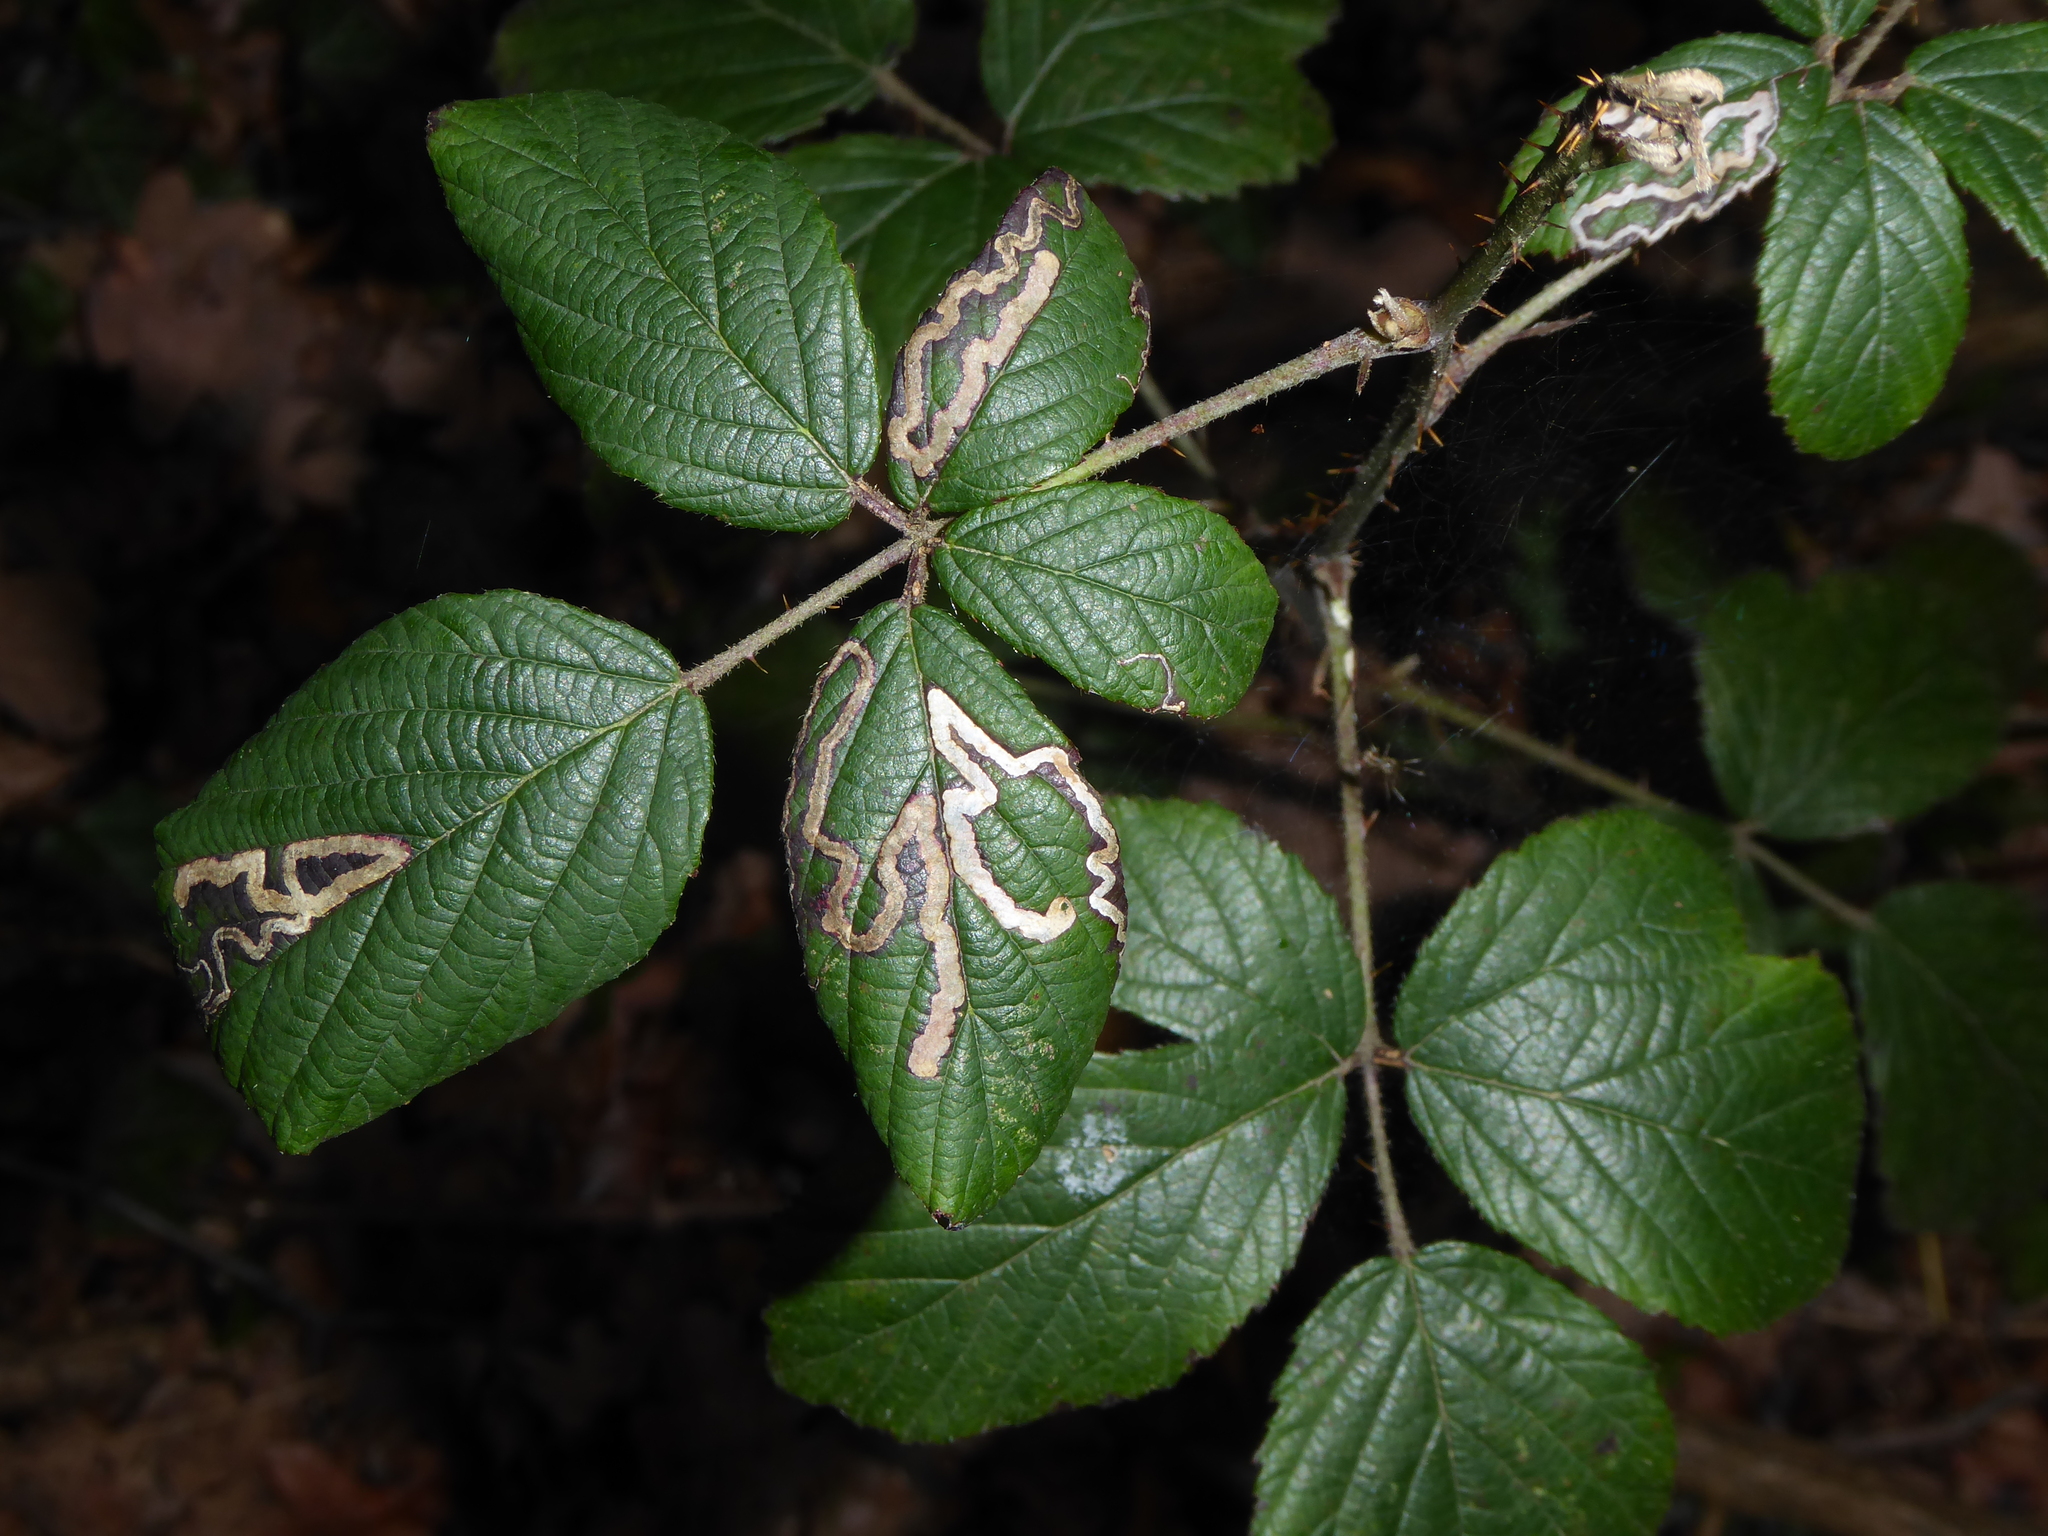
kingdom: Animalia
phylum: Arthropoda
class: Insecta
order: Lepidoptera
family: Nepticulidae
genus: Stigmella
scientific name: Stigmella aurella
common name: Golden pigmy
